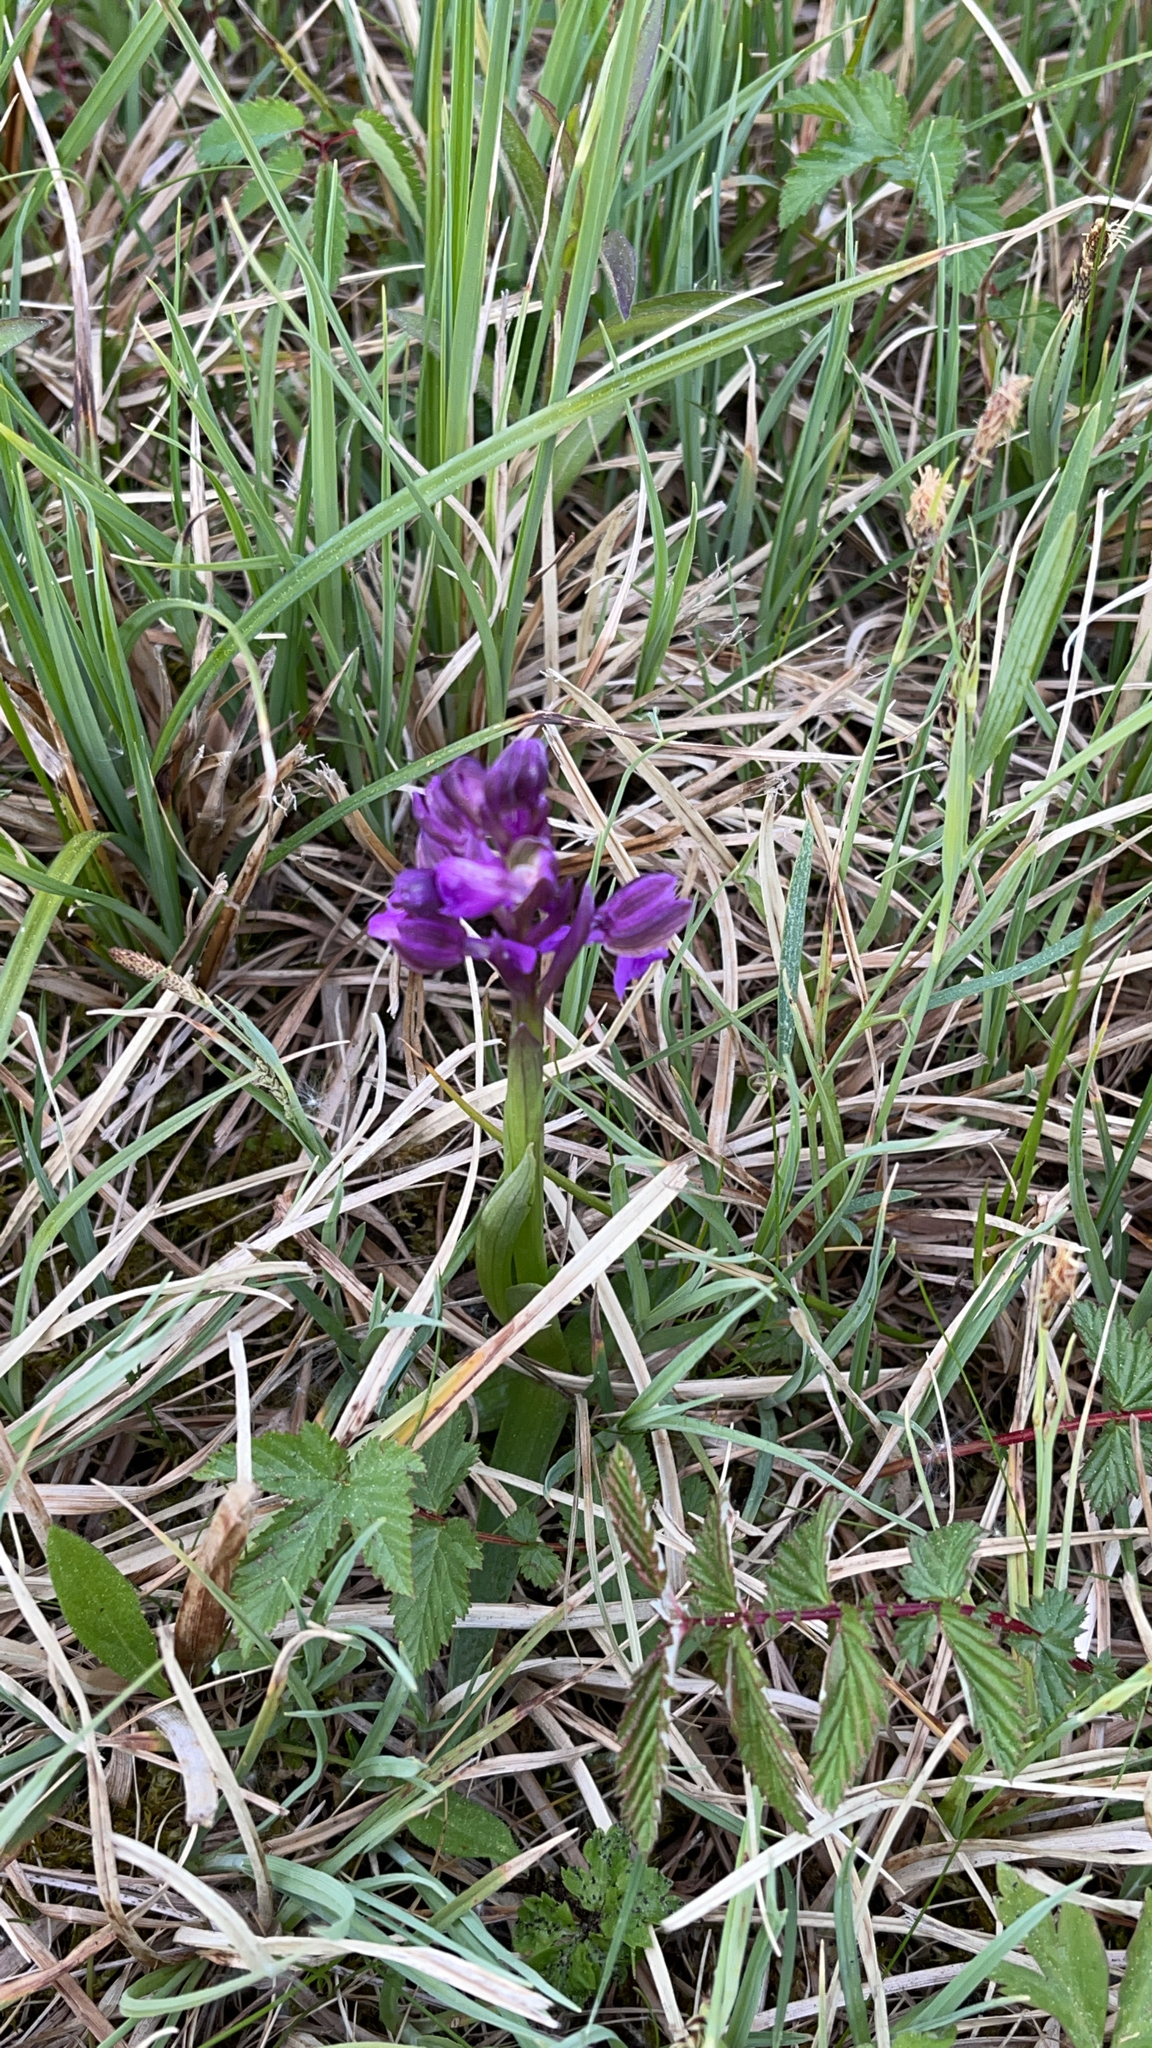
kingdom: Plantae
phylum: Tracheophyta
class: Liliopsida
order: Asparagales
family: Orchidaceae
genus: Anacamptis
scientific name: Anacamptis morio
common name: Green-winged orchid
